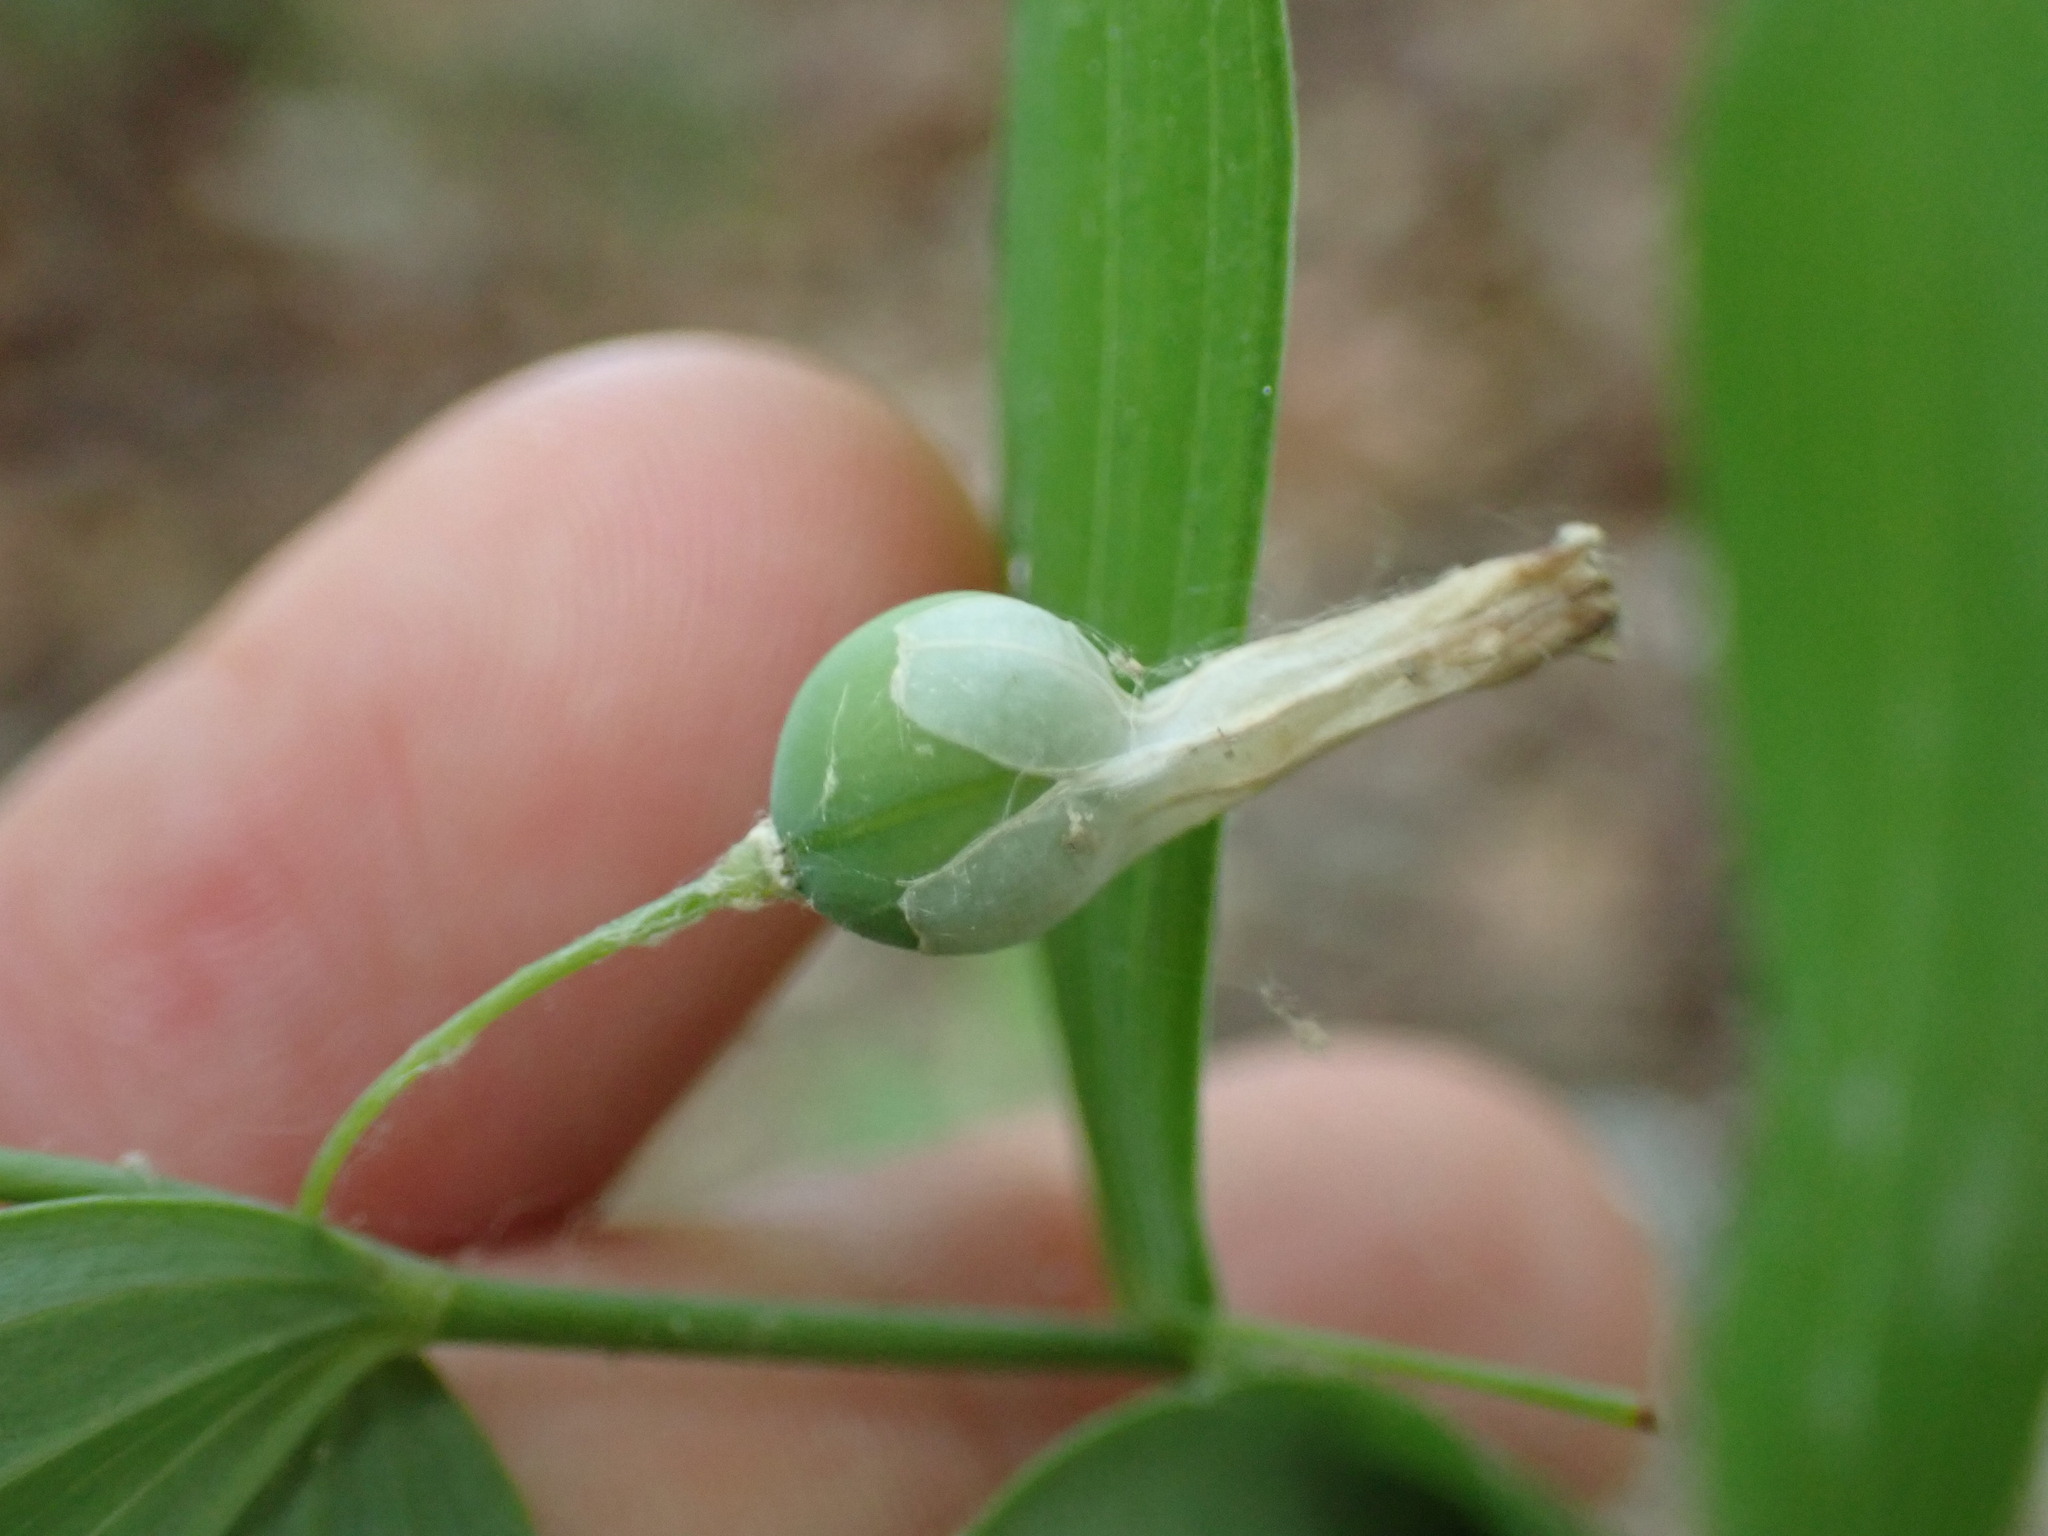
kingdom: Plantae
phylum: Tracheophyta
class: Liliopsida
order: Asparagales
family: Asparagaceae
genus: Polygonatum
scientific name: Polygonatum biflorum
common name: American solomon's-seal
